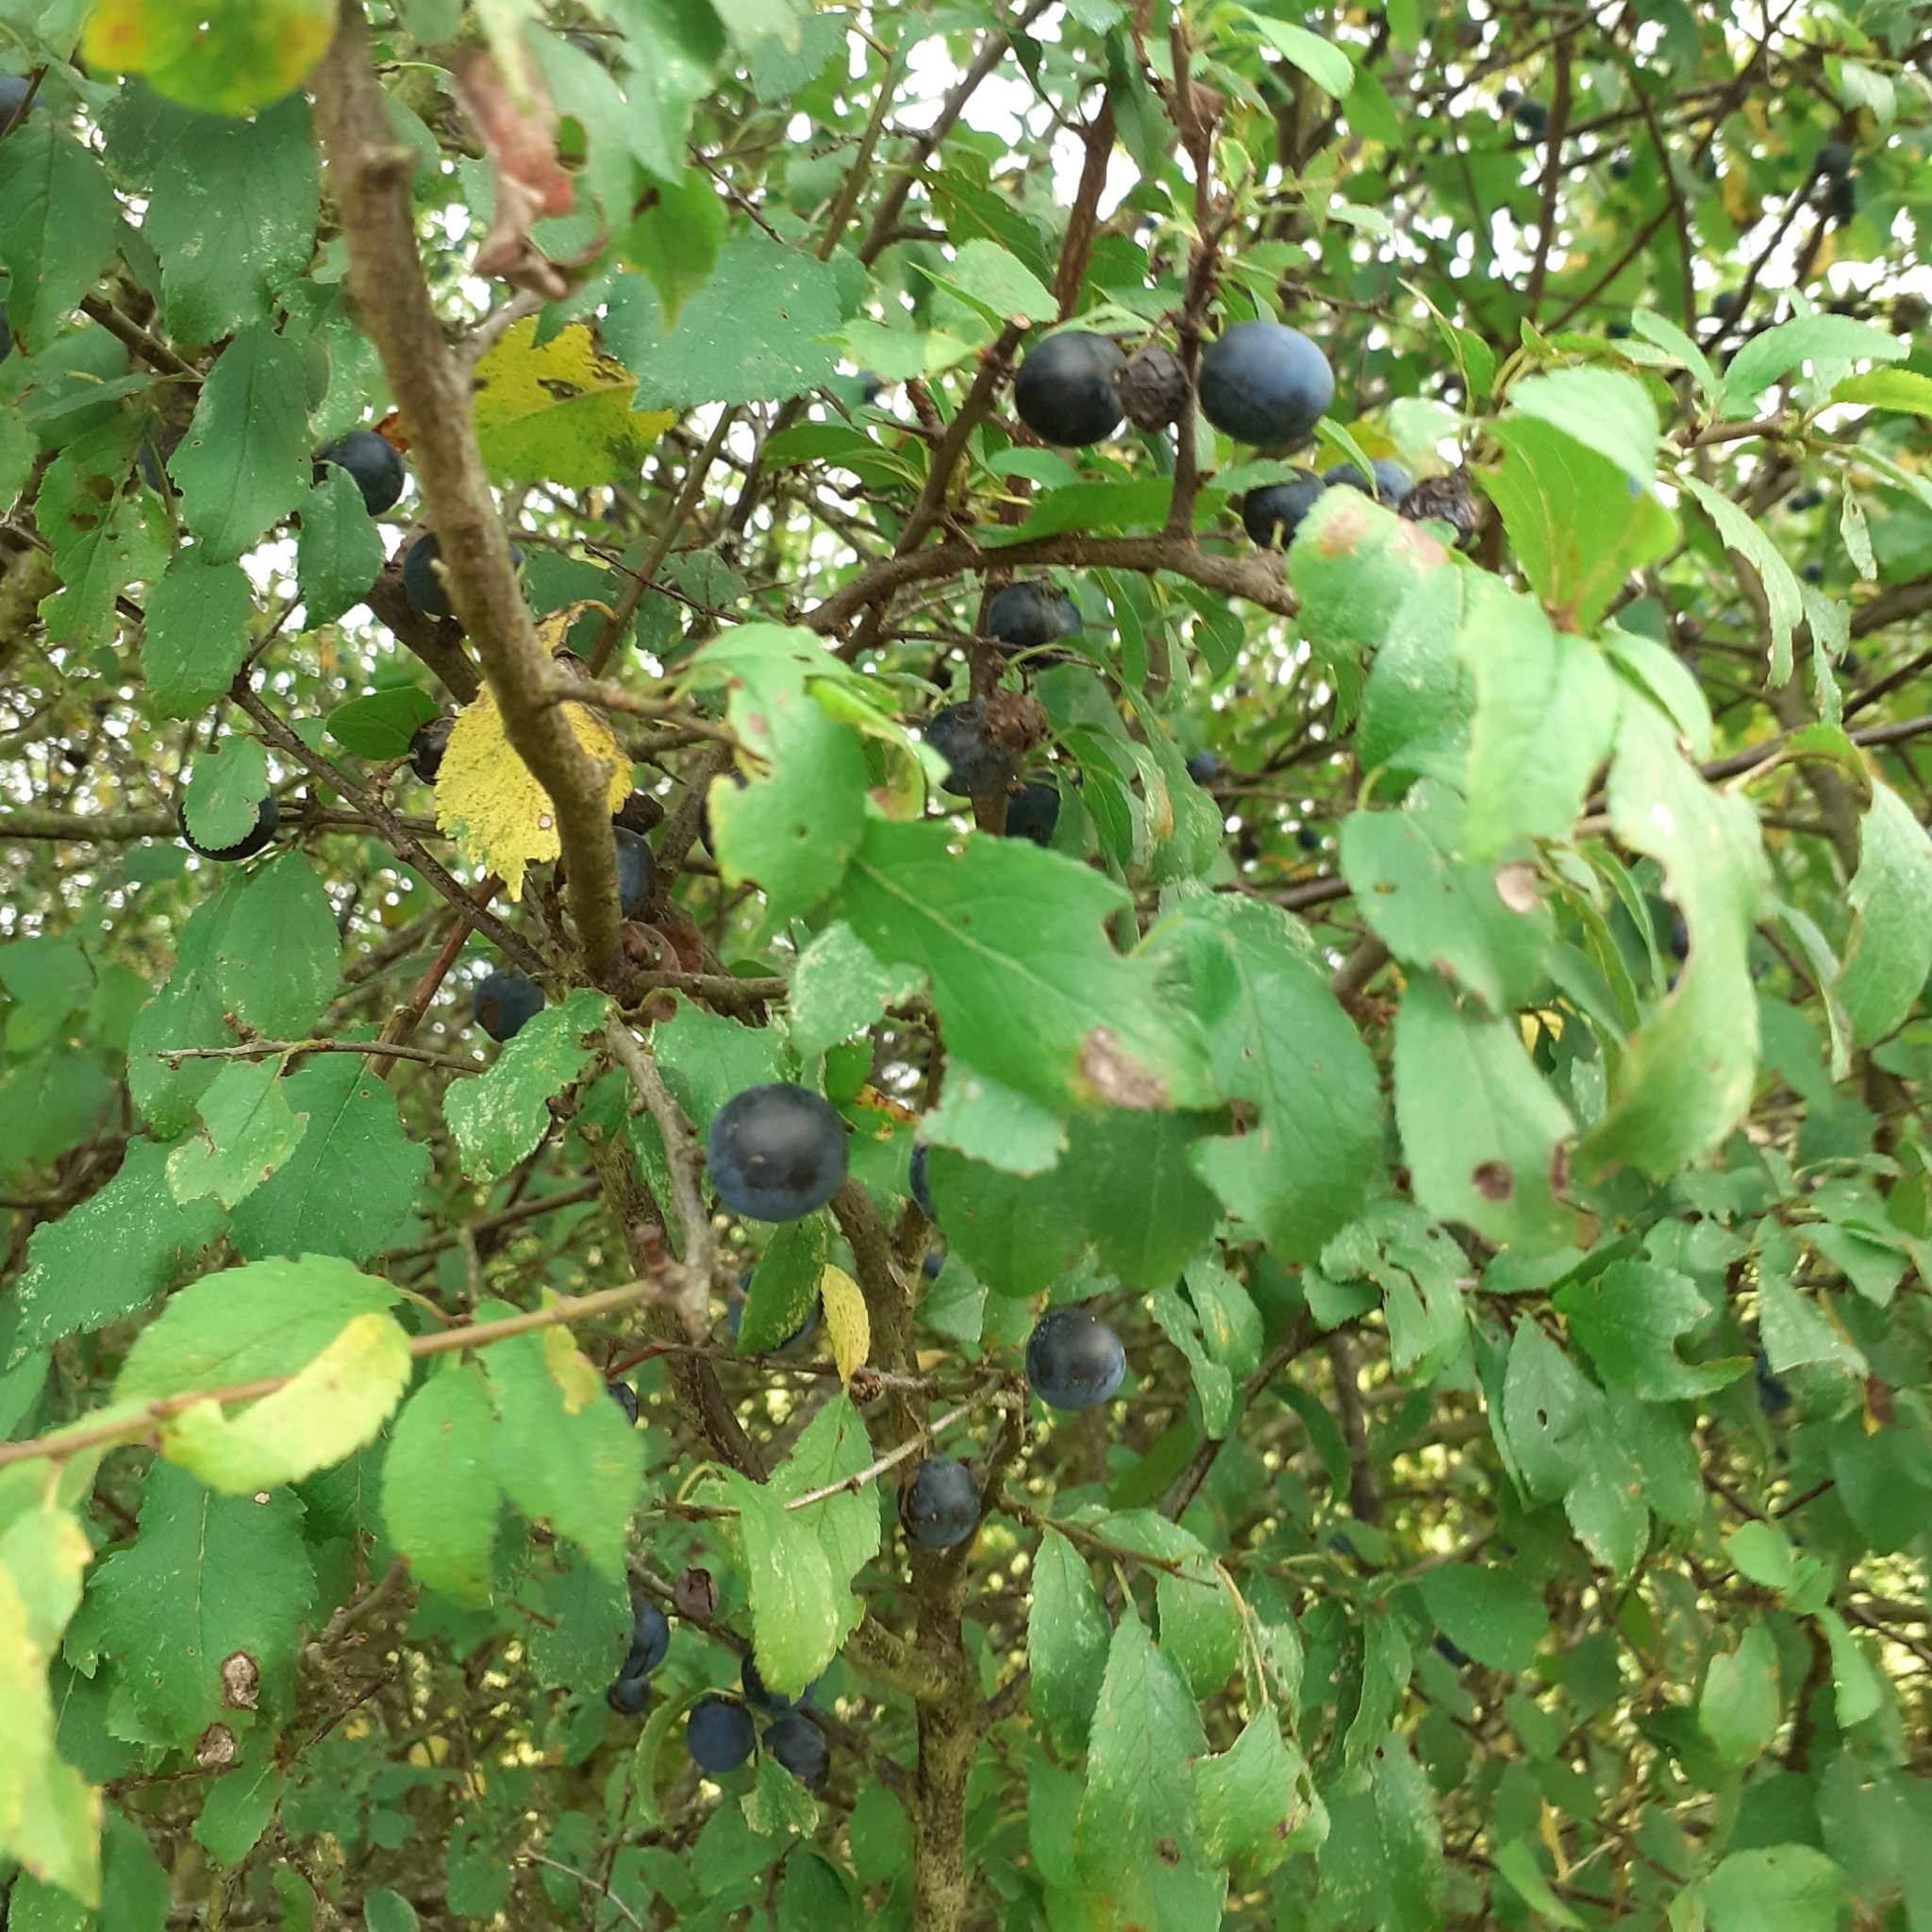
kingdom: Plantae
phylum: Tracheophyta
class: Magnoliopsida
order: Rosales
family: Rosaceae
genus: Prunus
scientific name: Prunus spinosa
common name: Blackthorn
